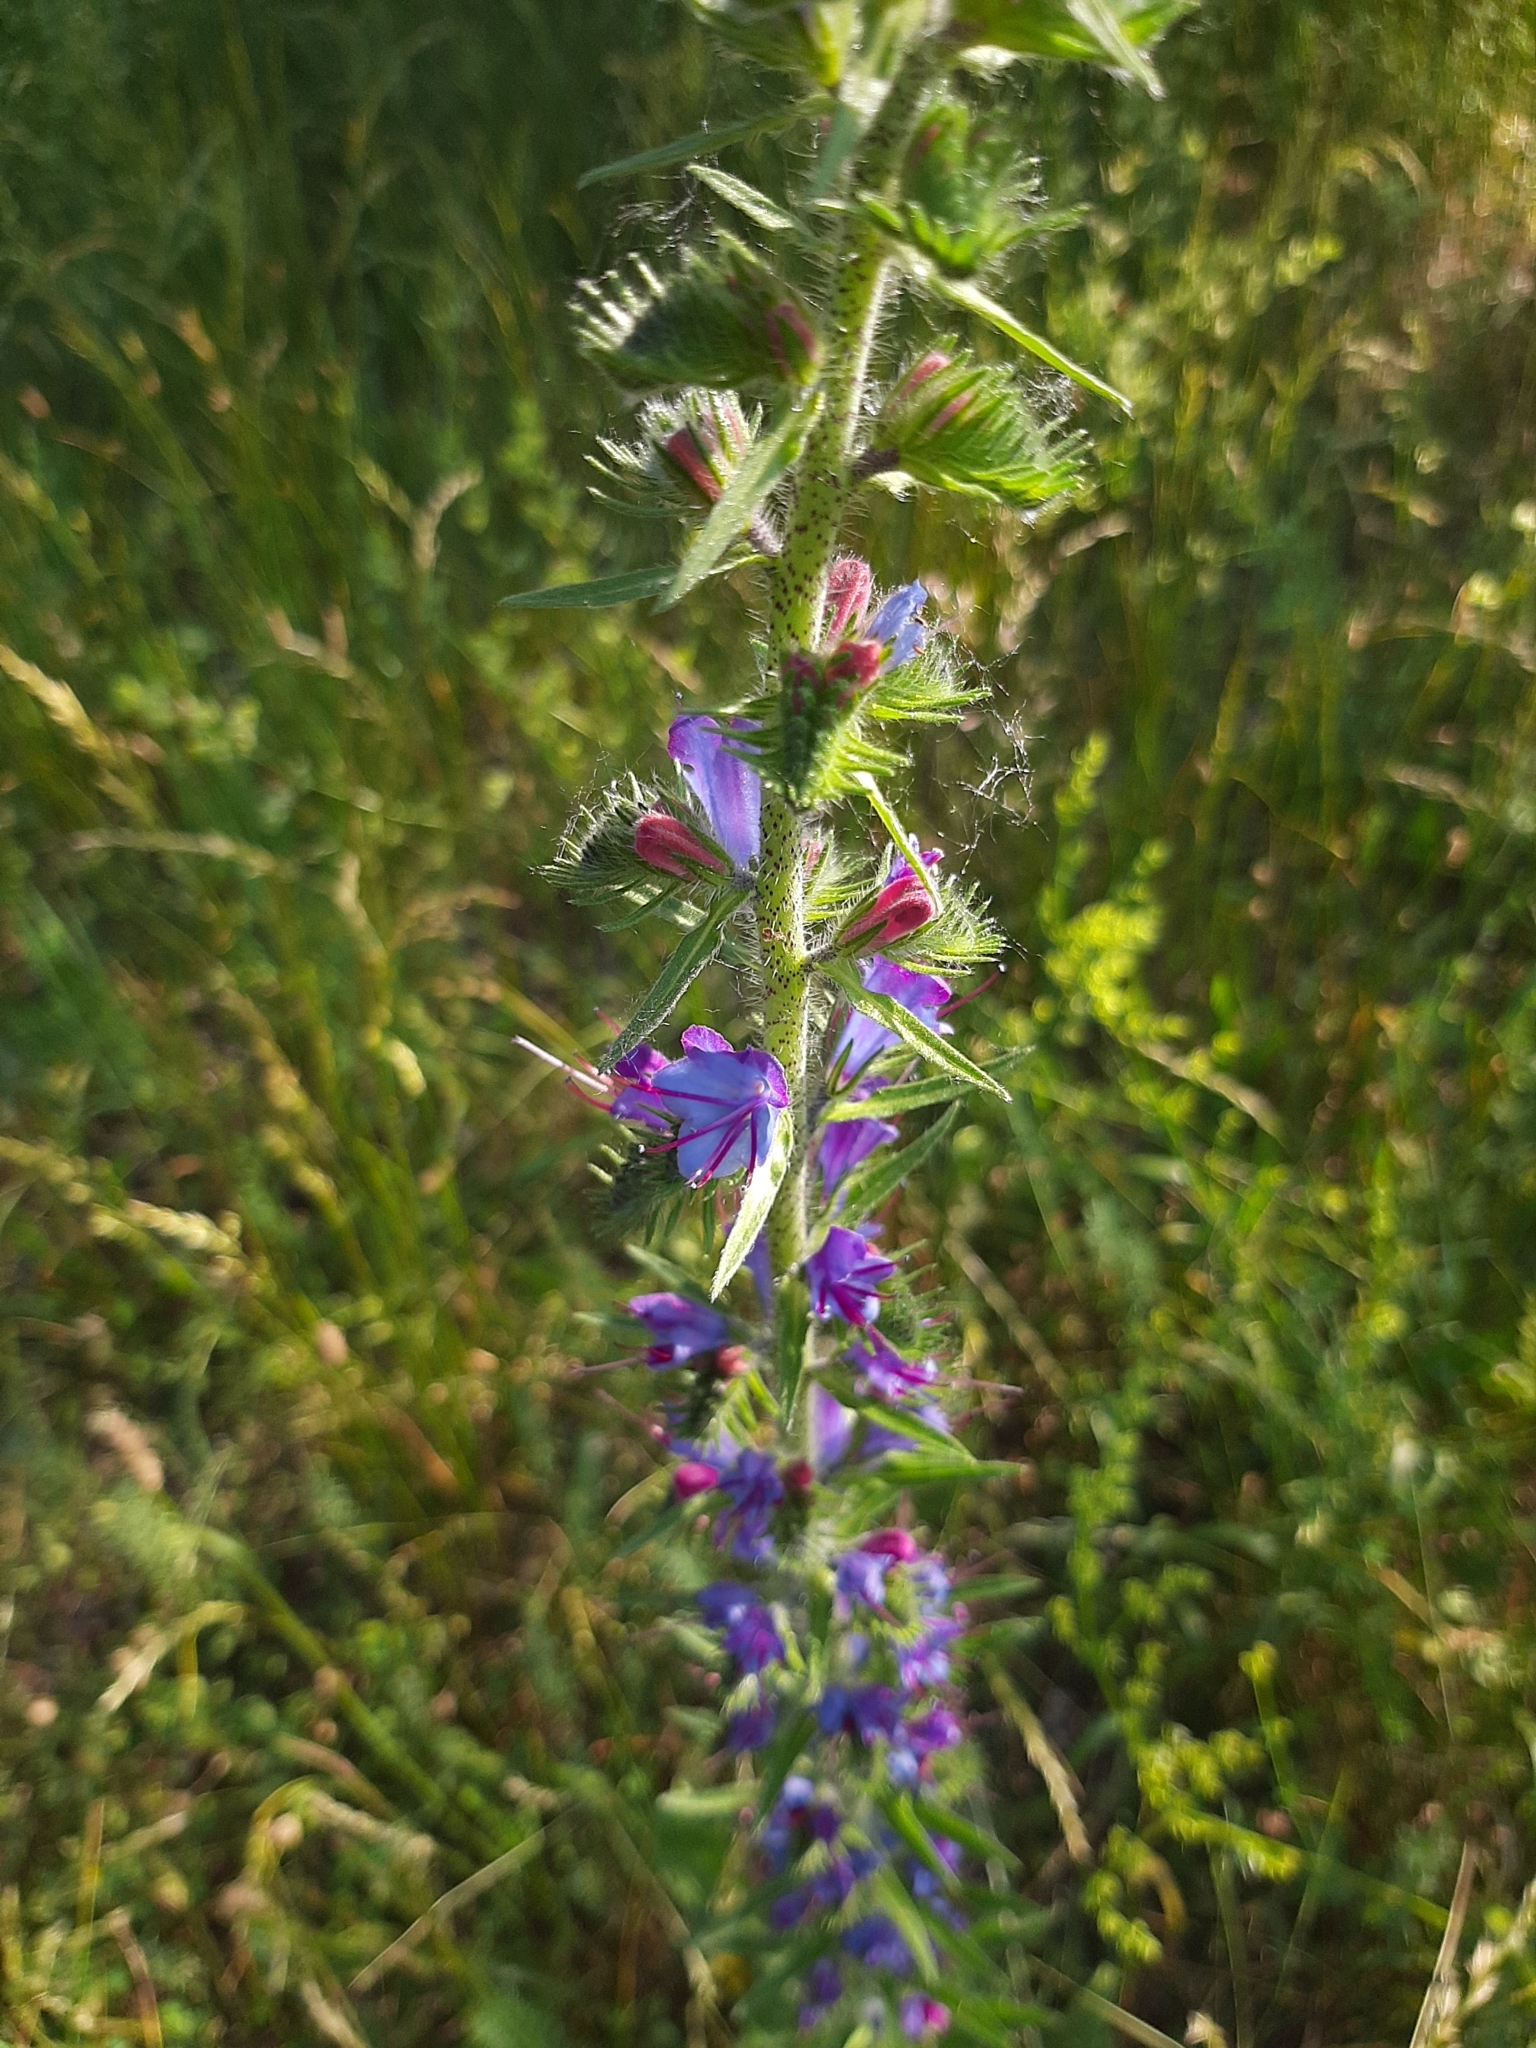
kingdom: Plantae
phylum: Tracheophyta
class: Magnoliopsida
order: Boraginales
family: Boraginaceae
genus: Echium
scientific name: Echium vulgare
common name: Common viper's bugloss
